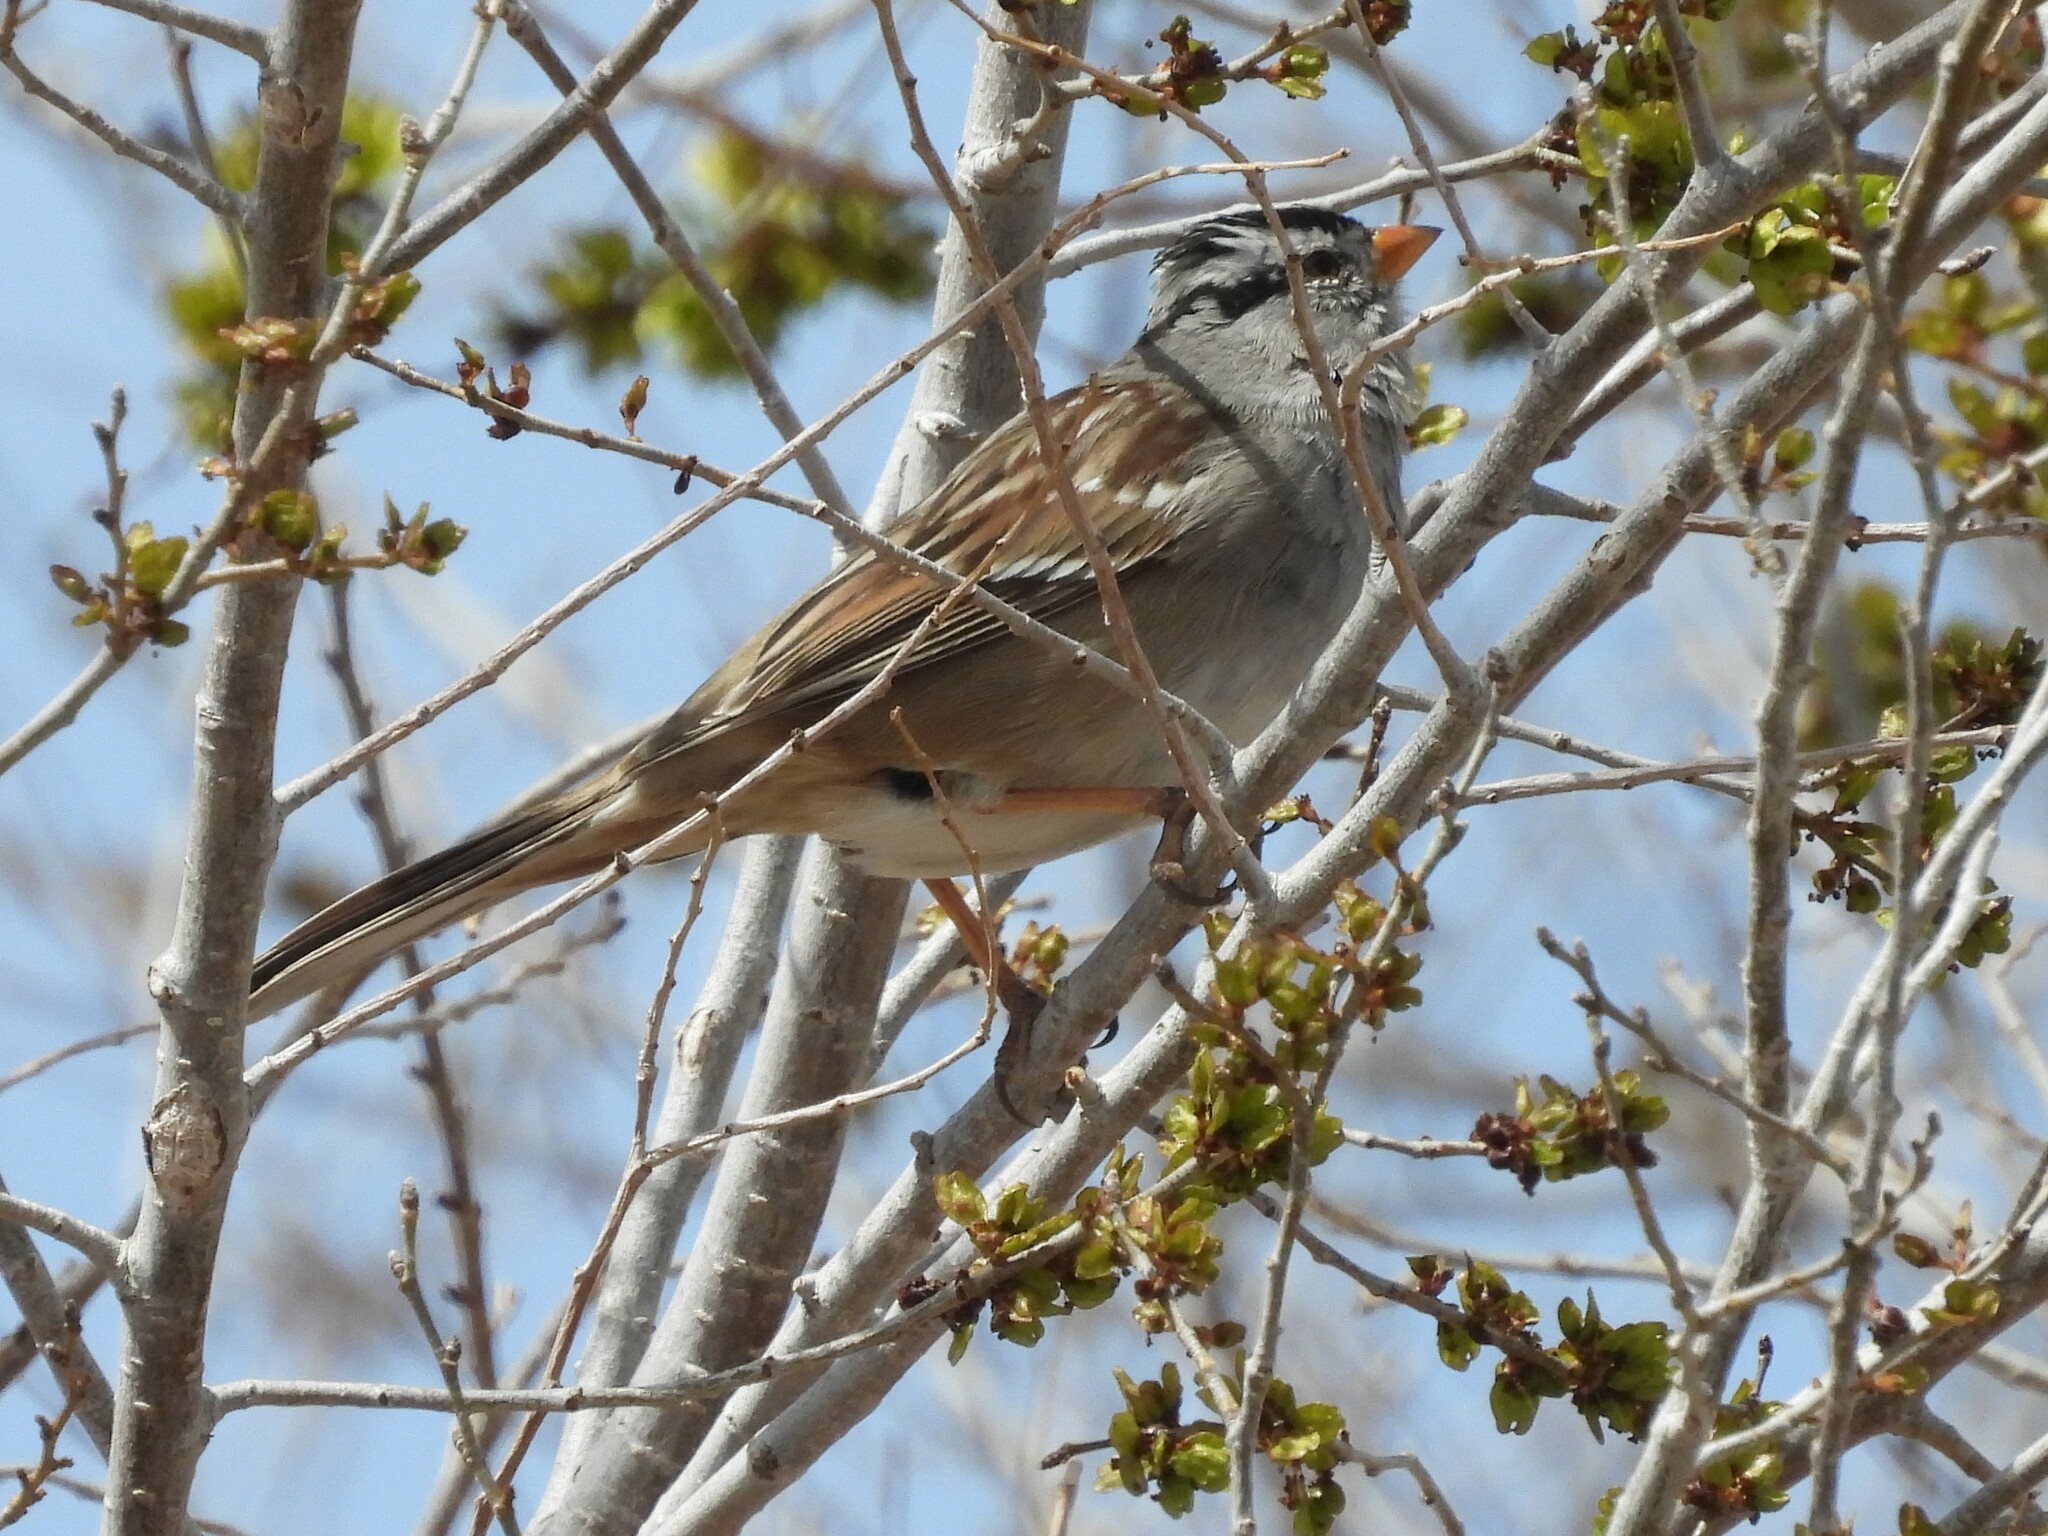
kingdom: Animalia
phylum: Chordata
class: Aves
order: Passeriformes
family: Passerellidae
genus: Zonotrichia
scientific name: Zonotrichia leucophrys
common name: White-crowned sparrow
